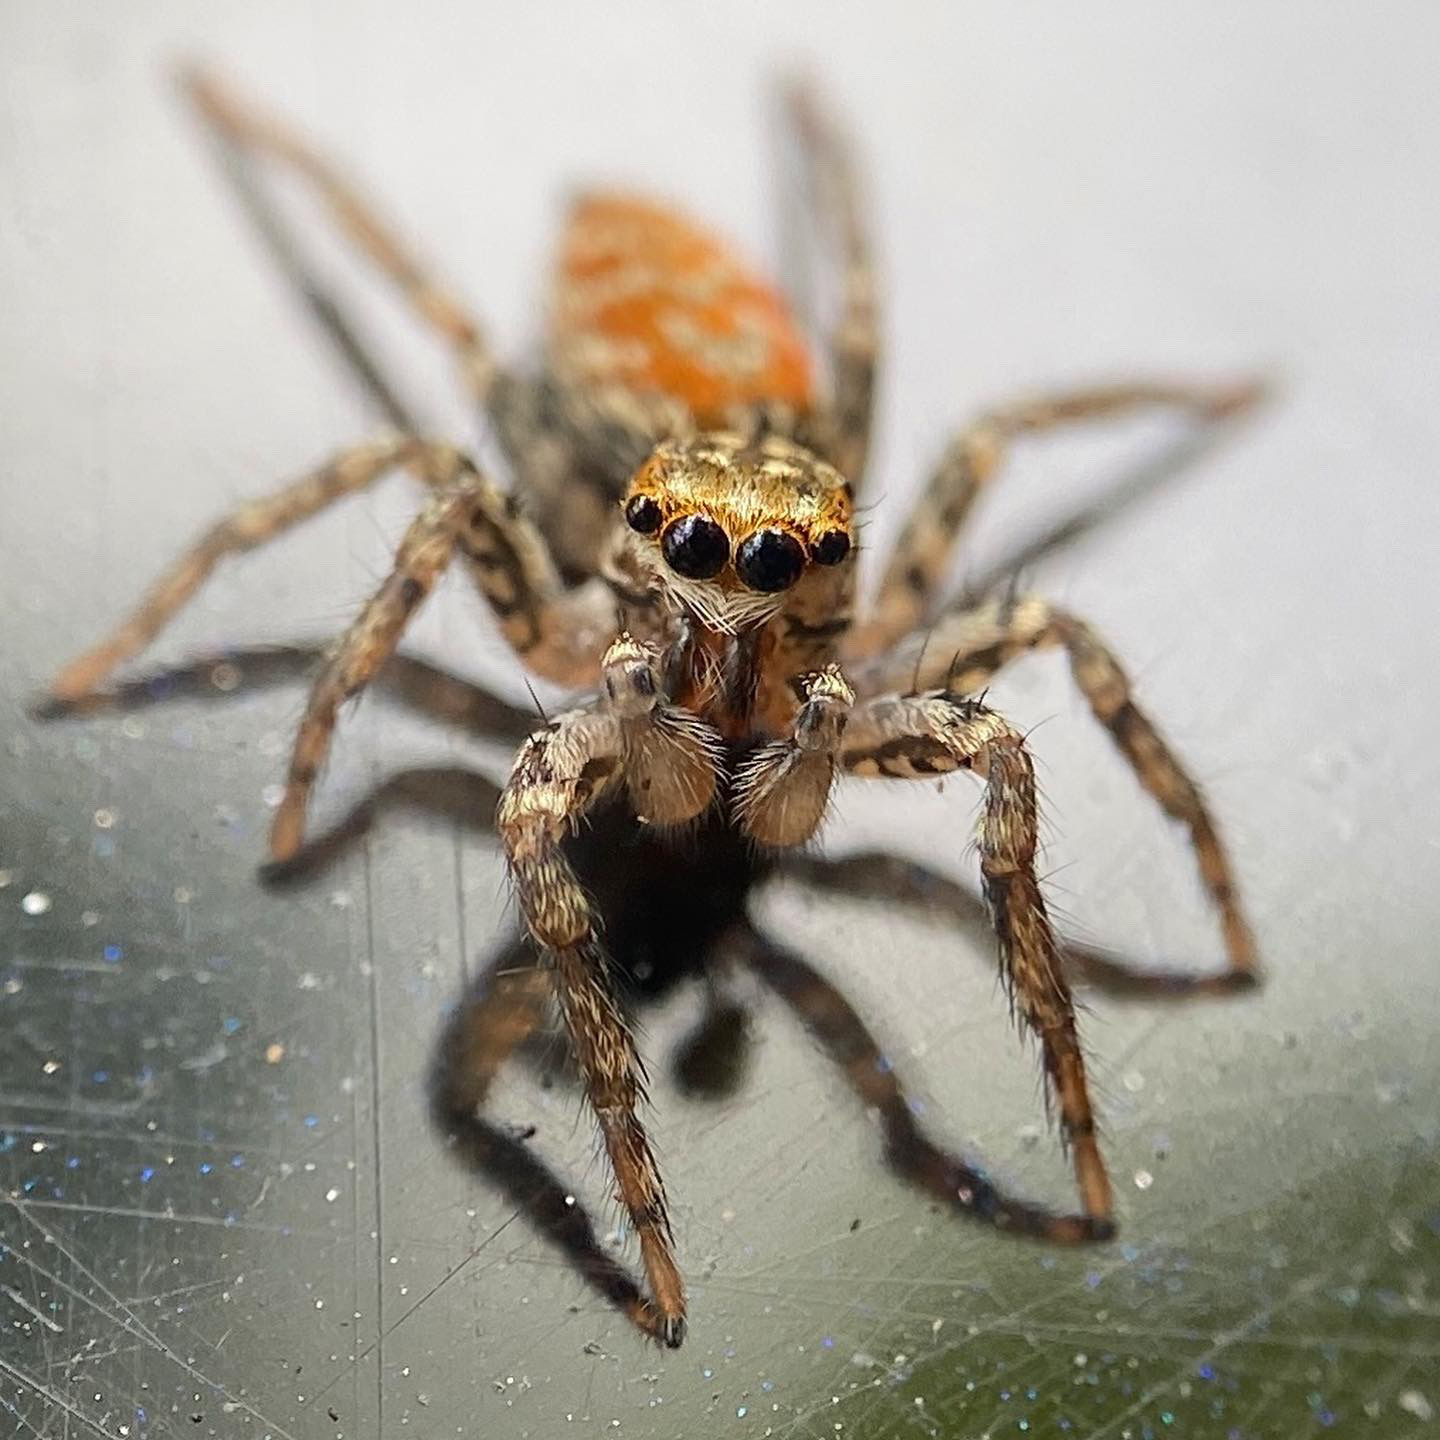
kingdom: Animalia
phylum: Arthropoda
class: Arachnida
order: Araneae
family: Salticidae
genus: Maevia
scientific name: Maevia inclemens
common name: Dimorphic jumper
